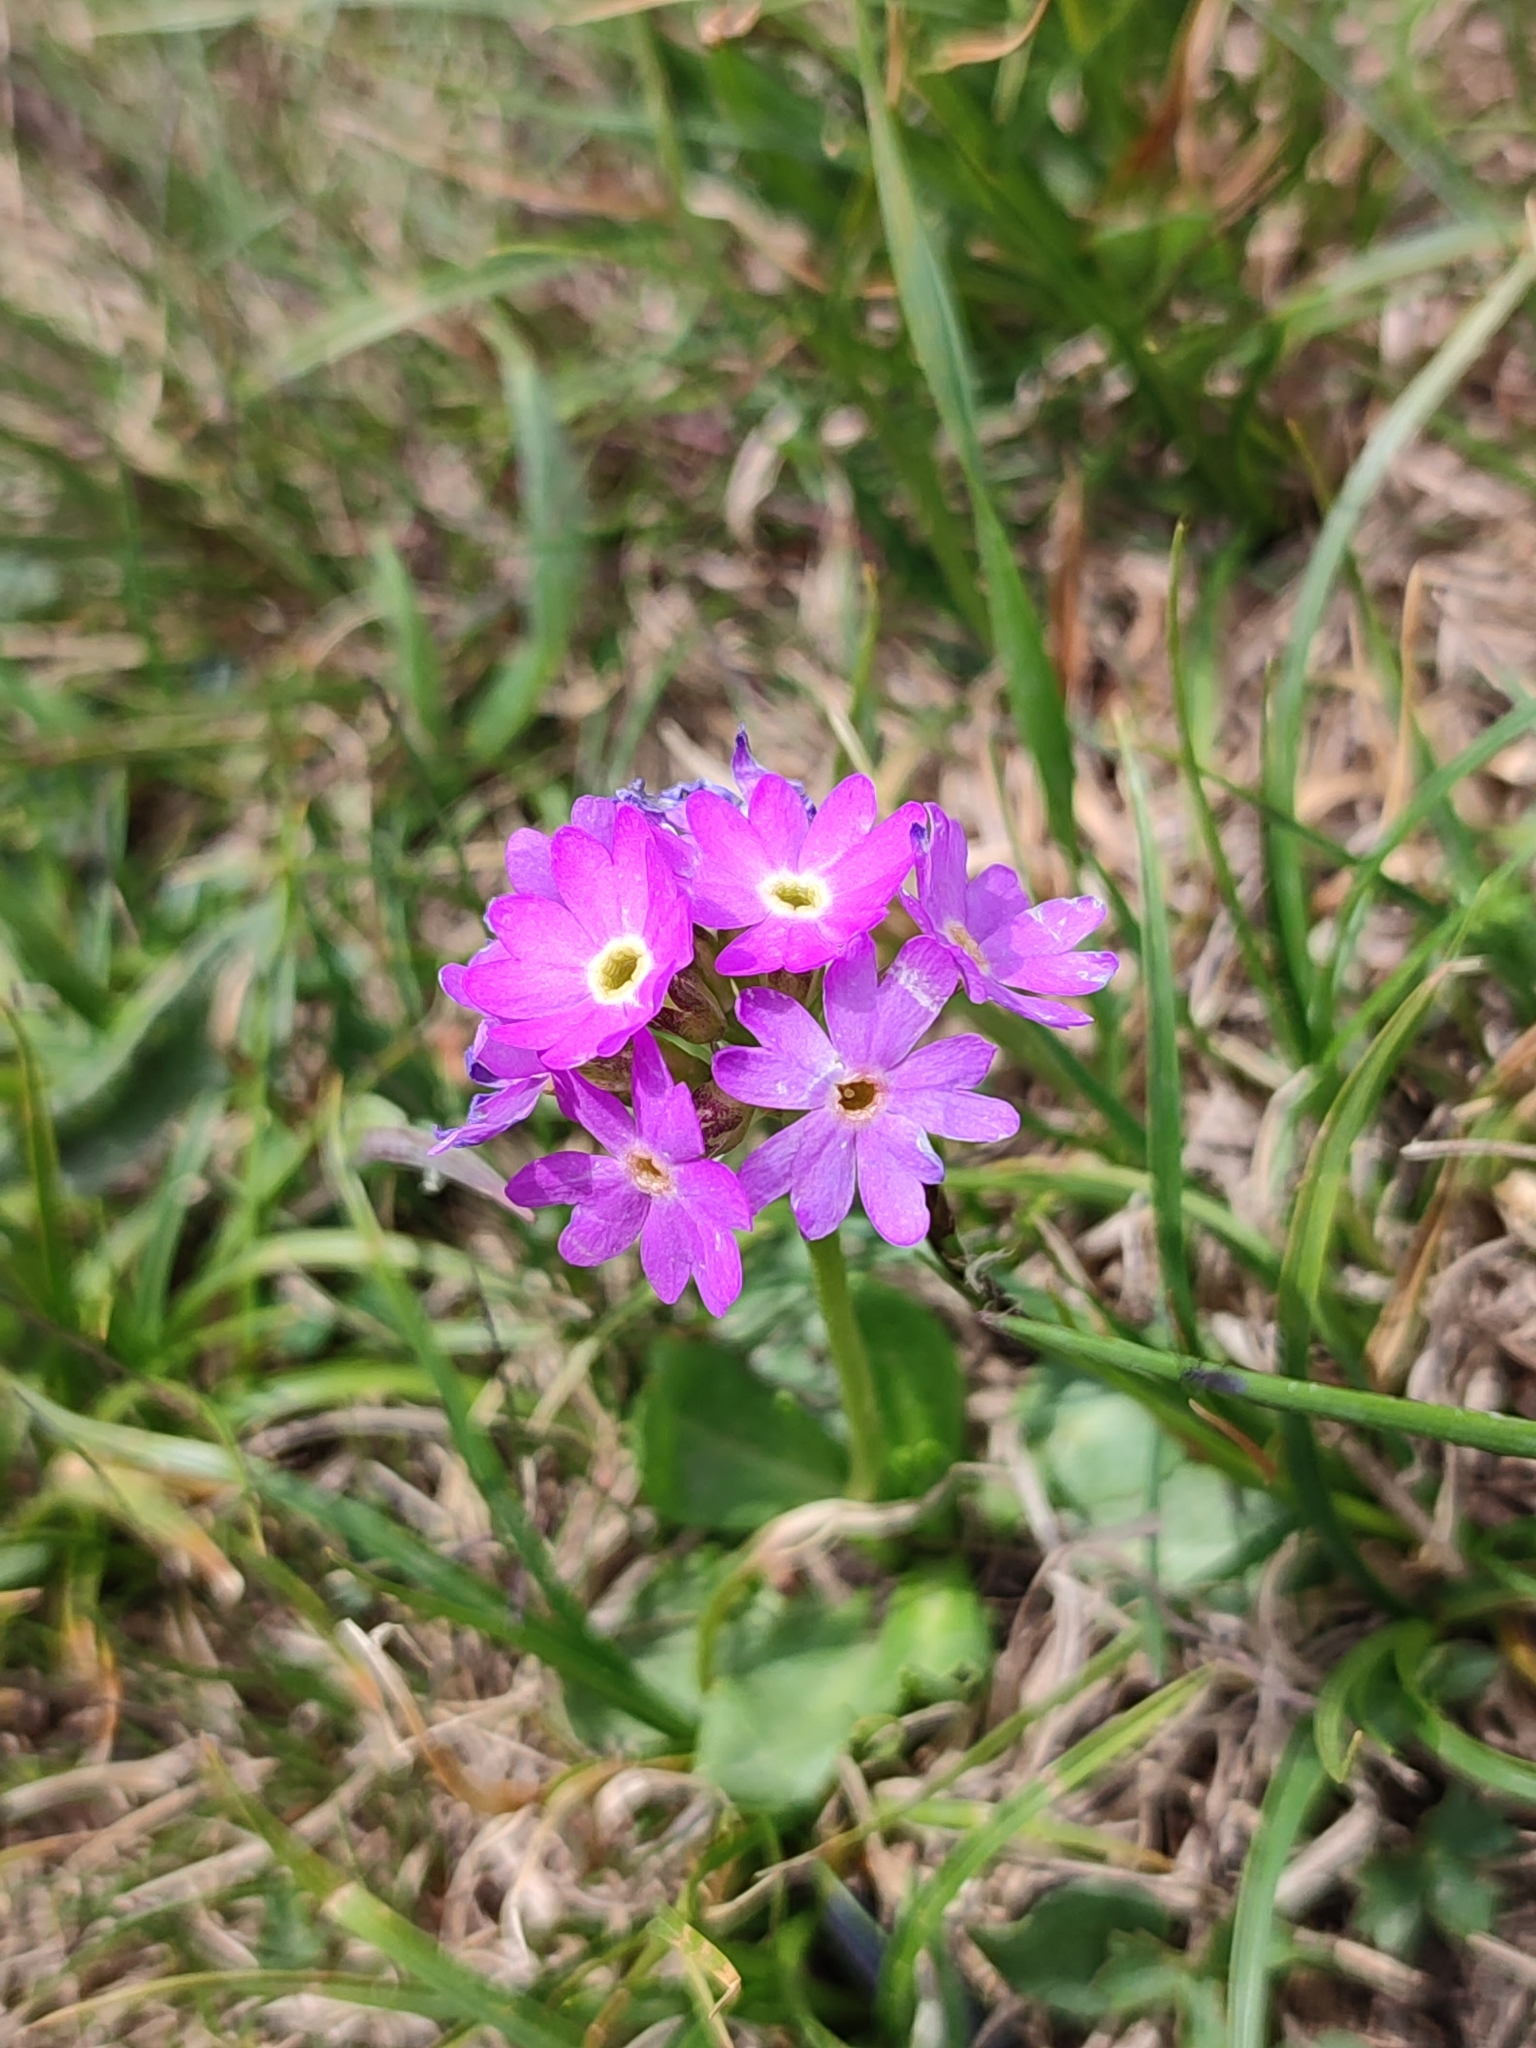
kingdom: Plantae
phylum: Tracheophyta
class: Magnoliopsida
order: Ericales
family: Primulaceae
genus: Primula
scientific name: Primula algida
